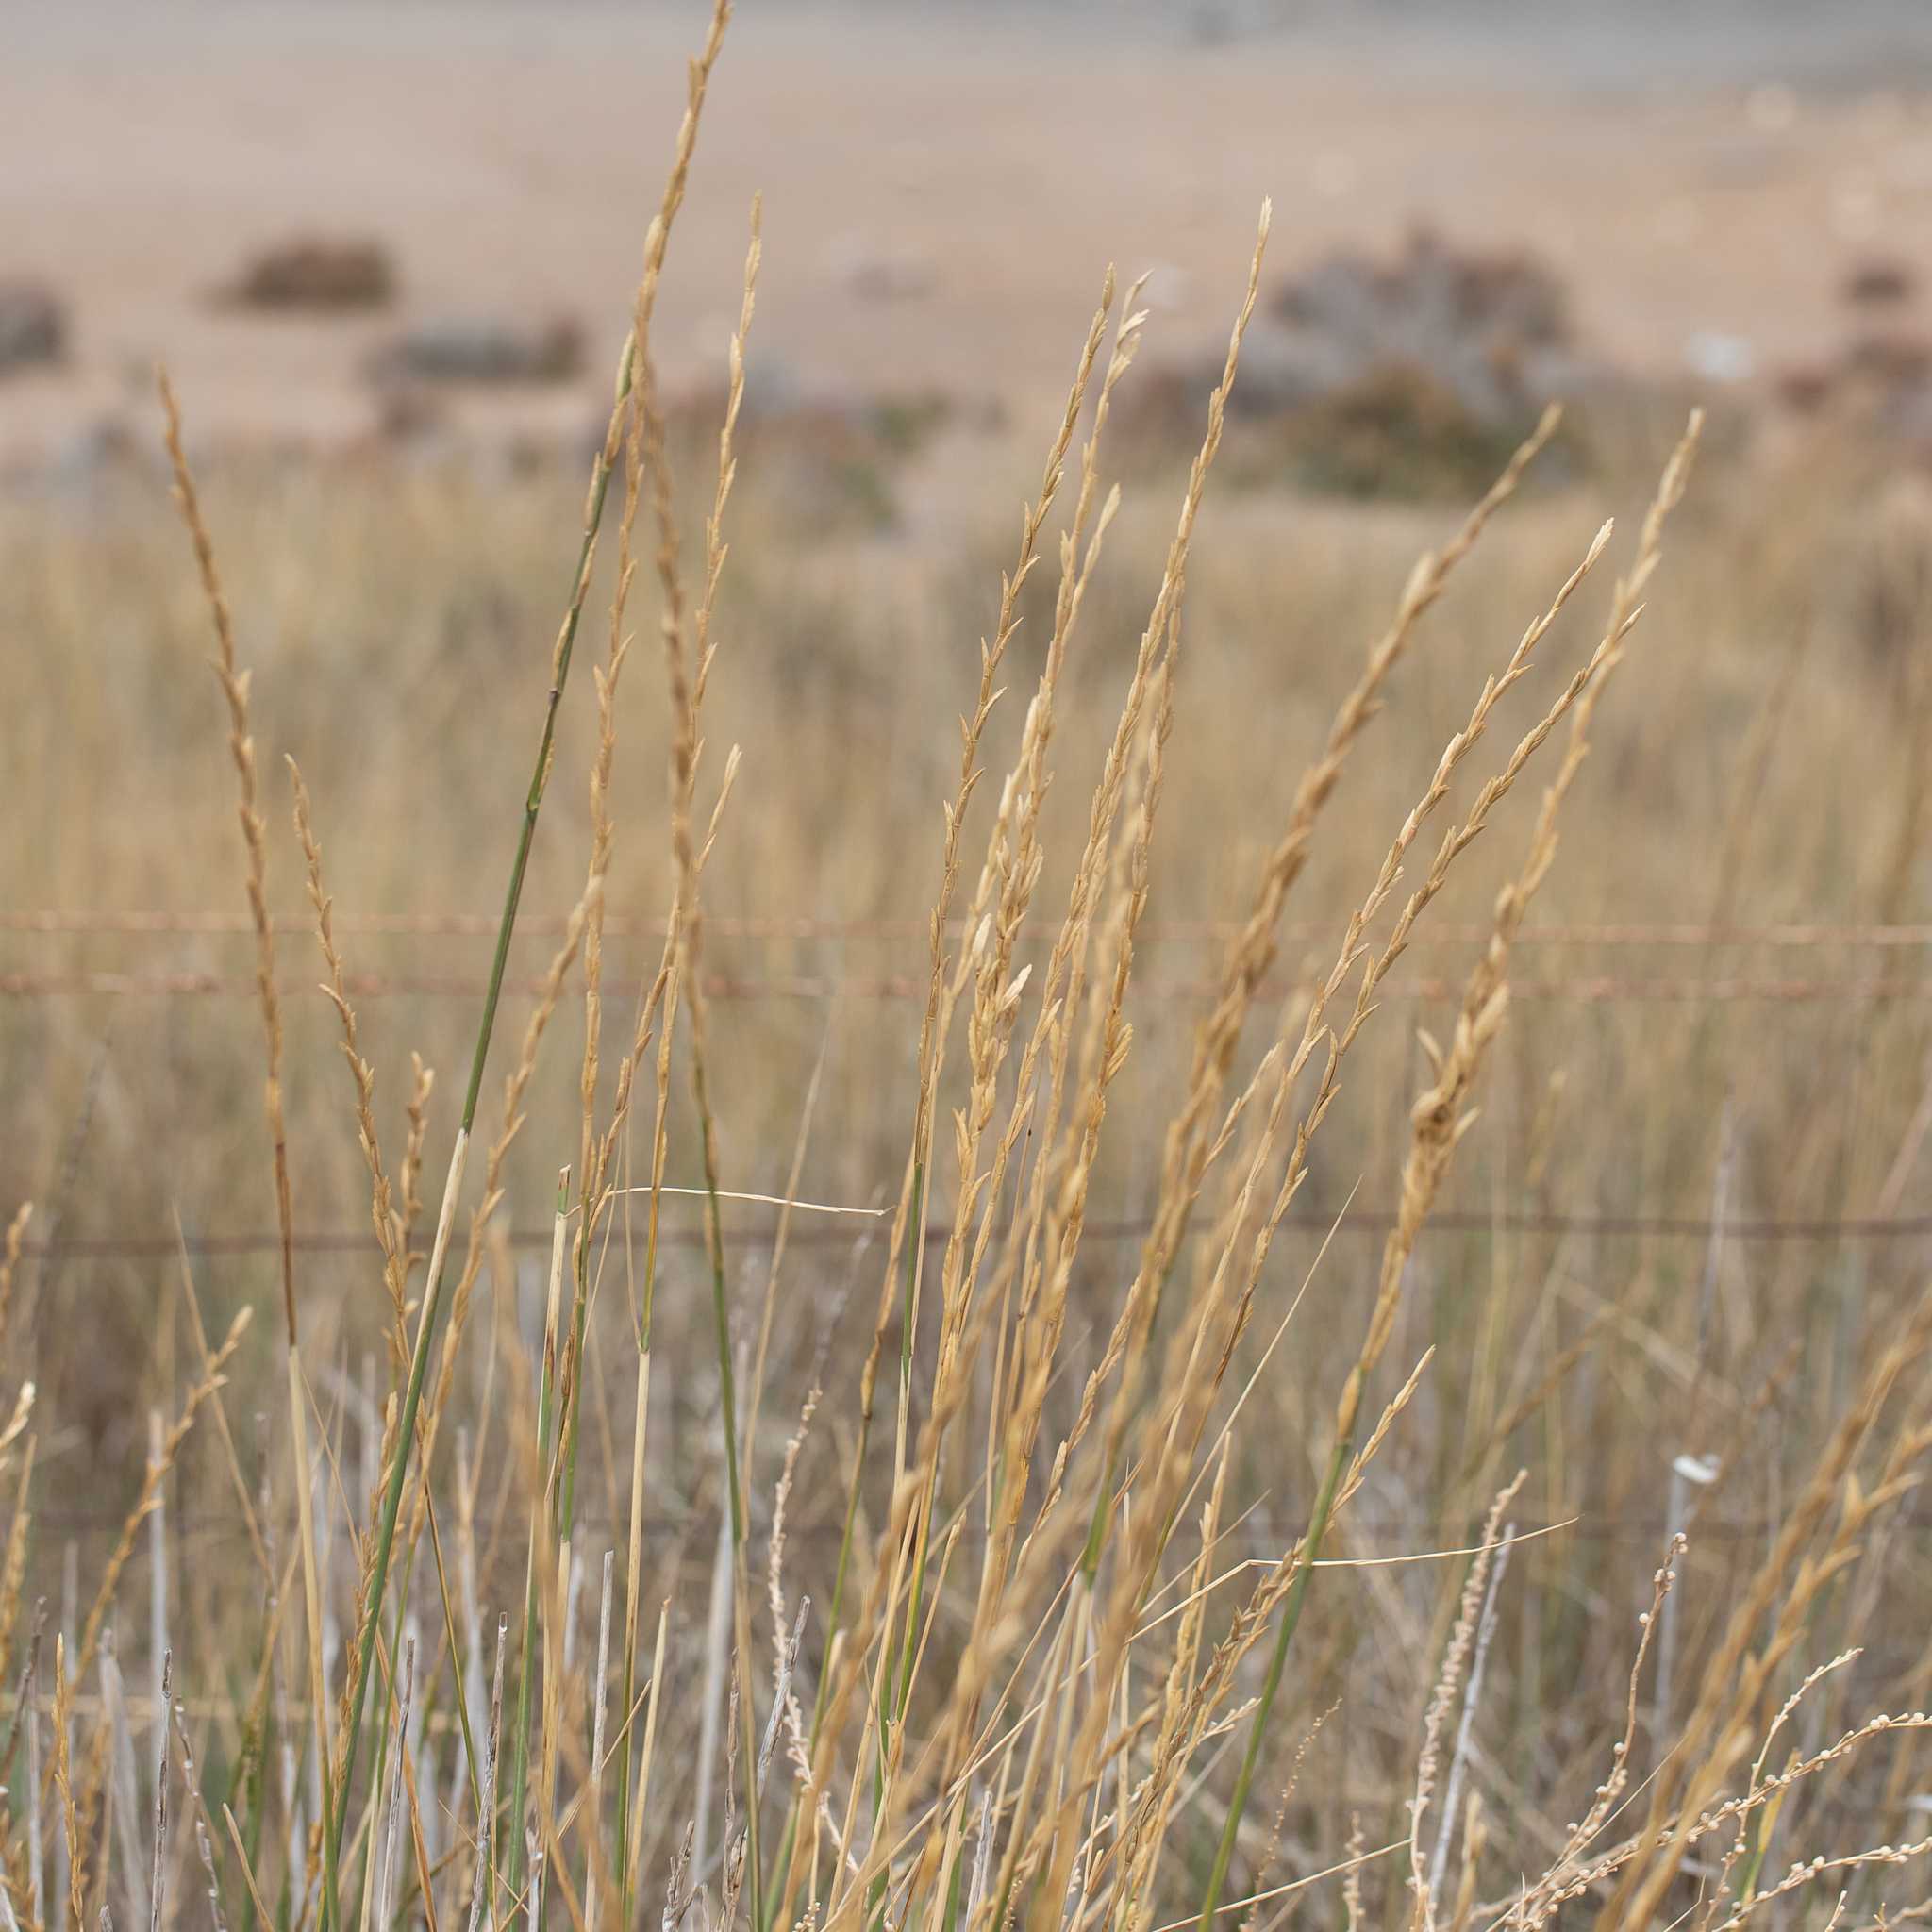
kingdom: Plantae
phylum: Tracheophyta
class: Liliopsida
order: Poales
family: Poaceae
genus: Thinopyrum
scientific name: Thinopyrum obtusiflorum
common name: Eurasian quackgrass
